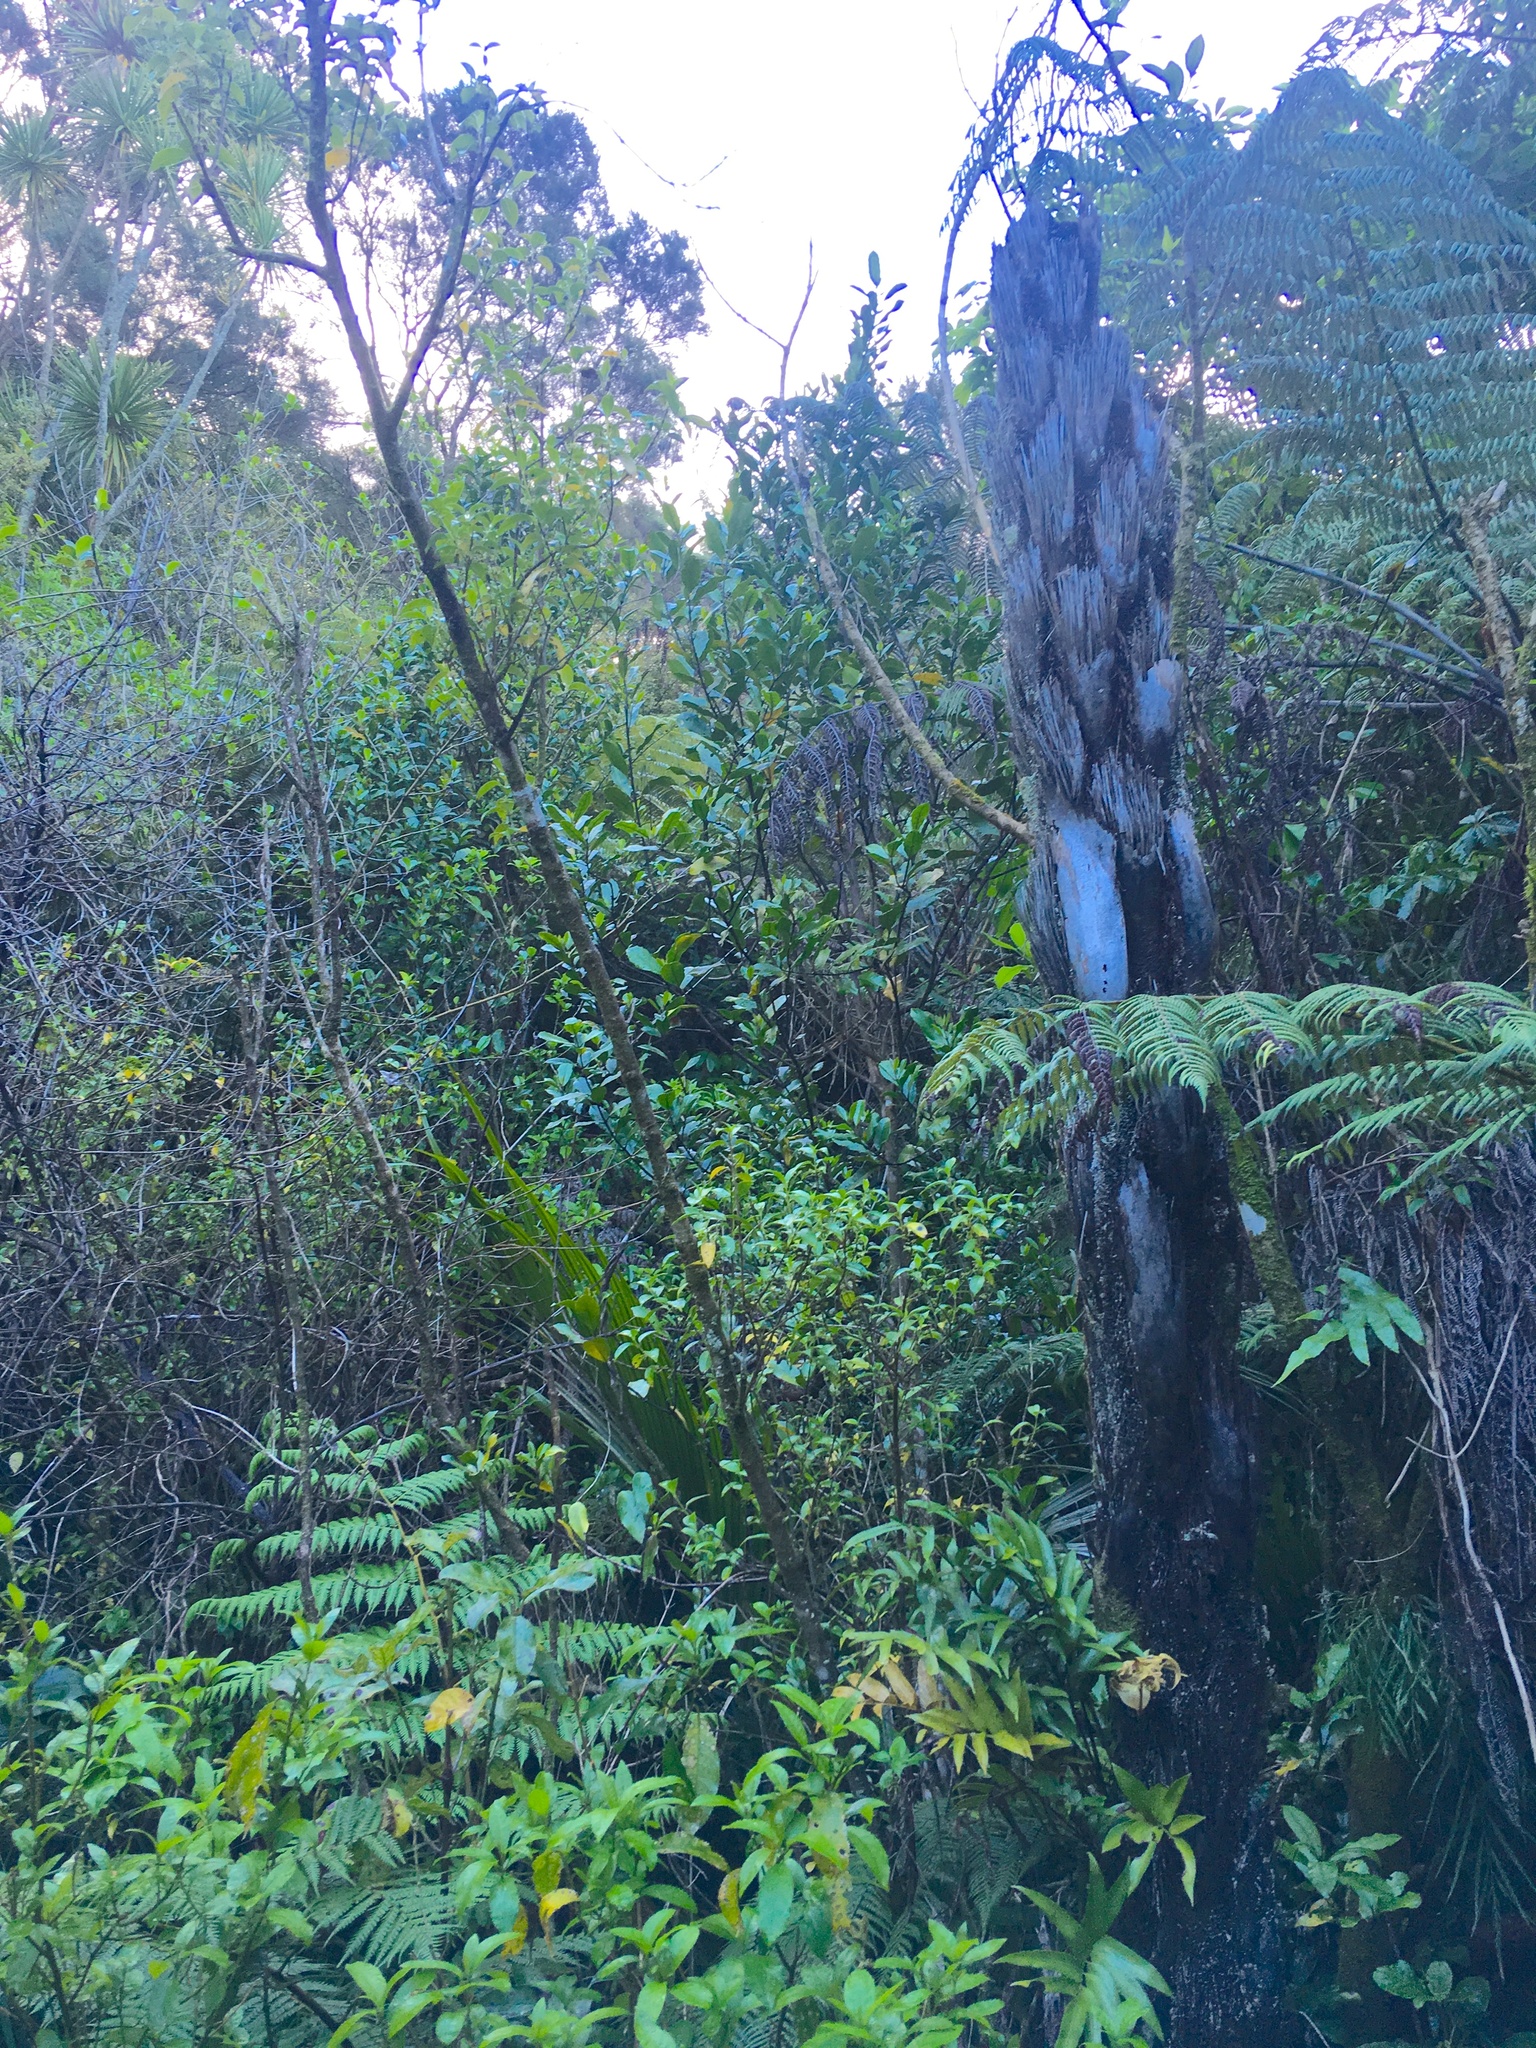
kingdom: Plantae
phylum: Tracheophyta
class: Polypodiopsida
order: Cyatheales
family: Cyatheaceae
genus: Sphaeropteris
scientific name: Sphaeropteris medullaris
